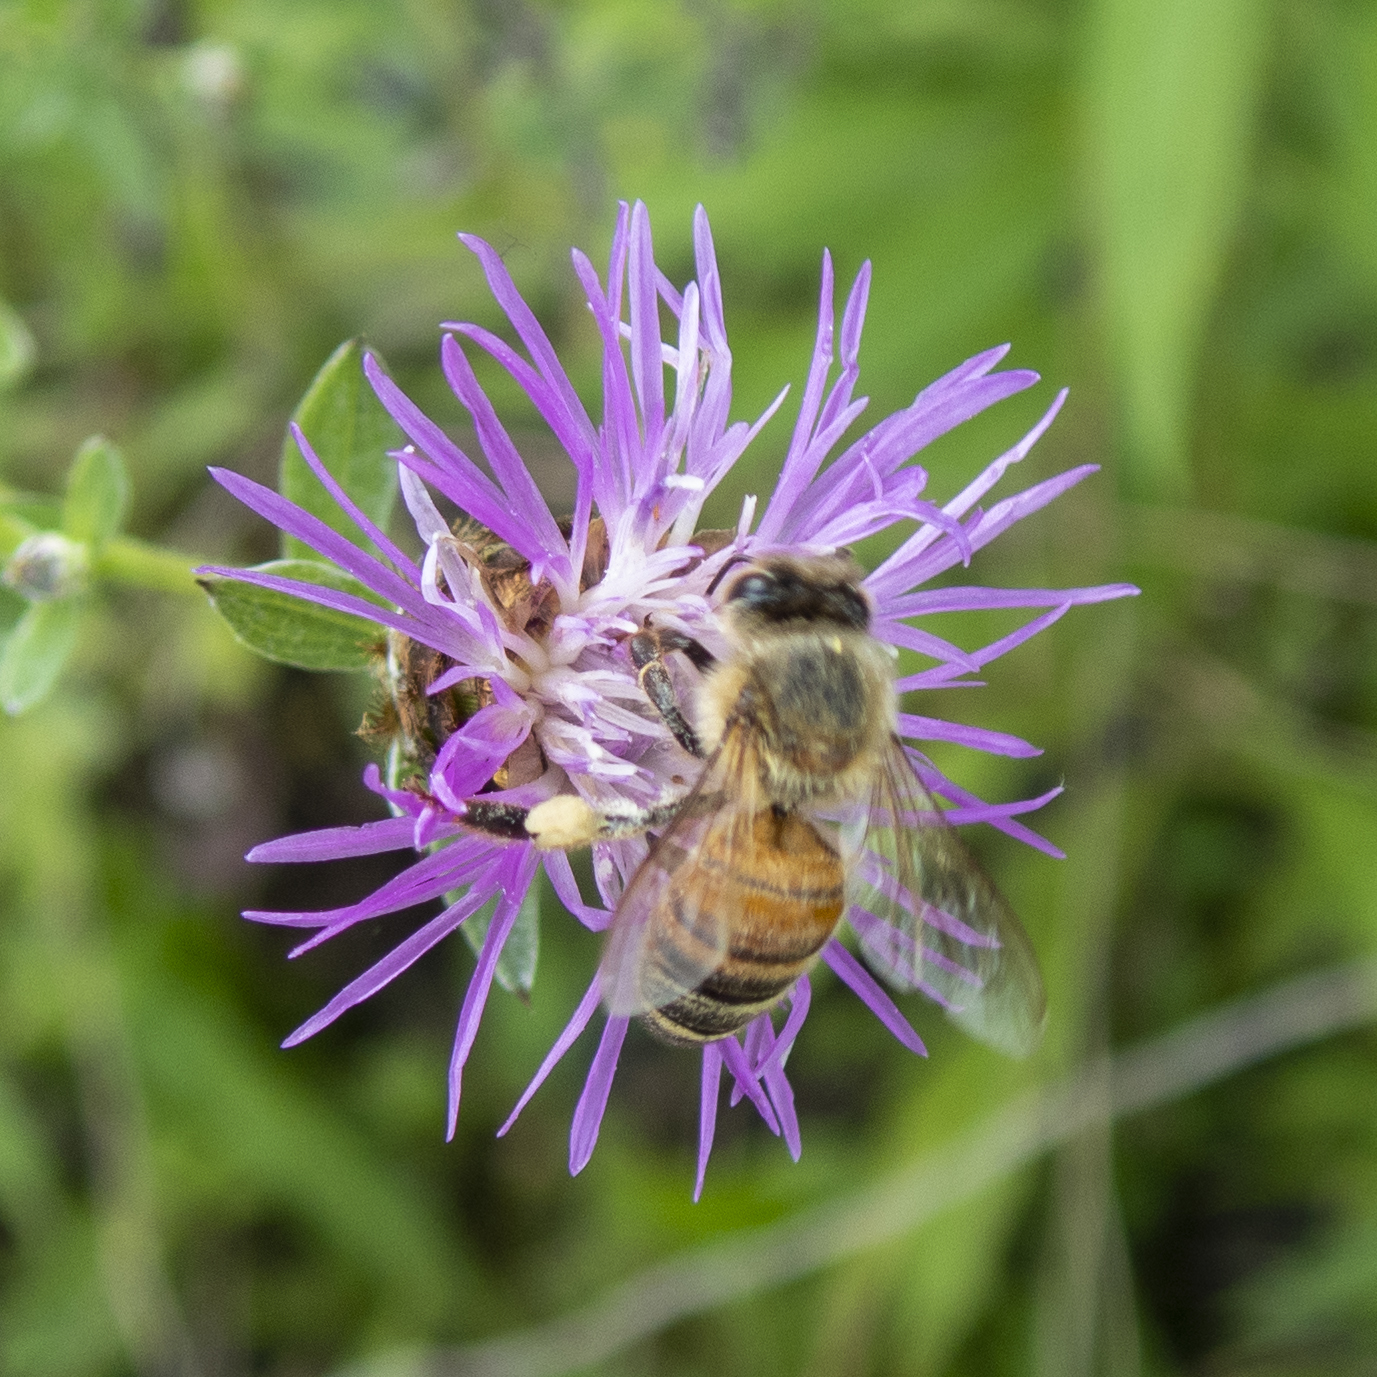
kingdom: Animalia
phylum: Arthropoda
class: Insecta
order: Hymenoptera
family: Apidae
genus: Apis
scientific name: Apis mellifera
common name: Honey bee
